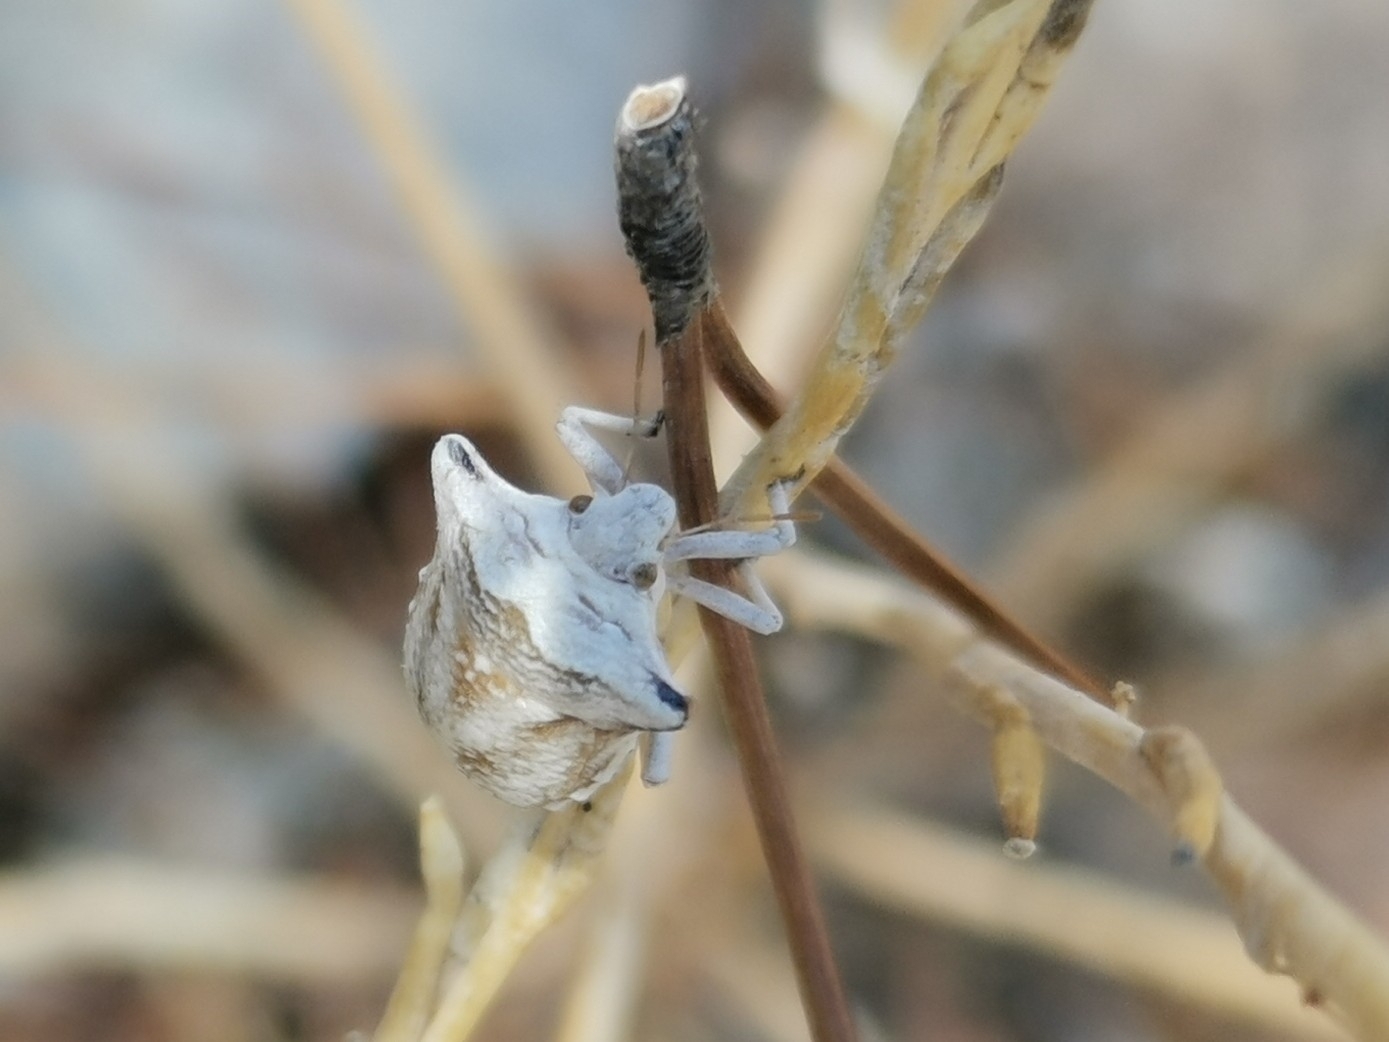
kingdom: Animalia
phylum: Arthropoda
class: Insecta
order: Hemiptera
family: Pentatomidae
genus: Ventocoris
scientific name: Ventocoris achivus
